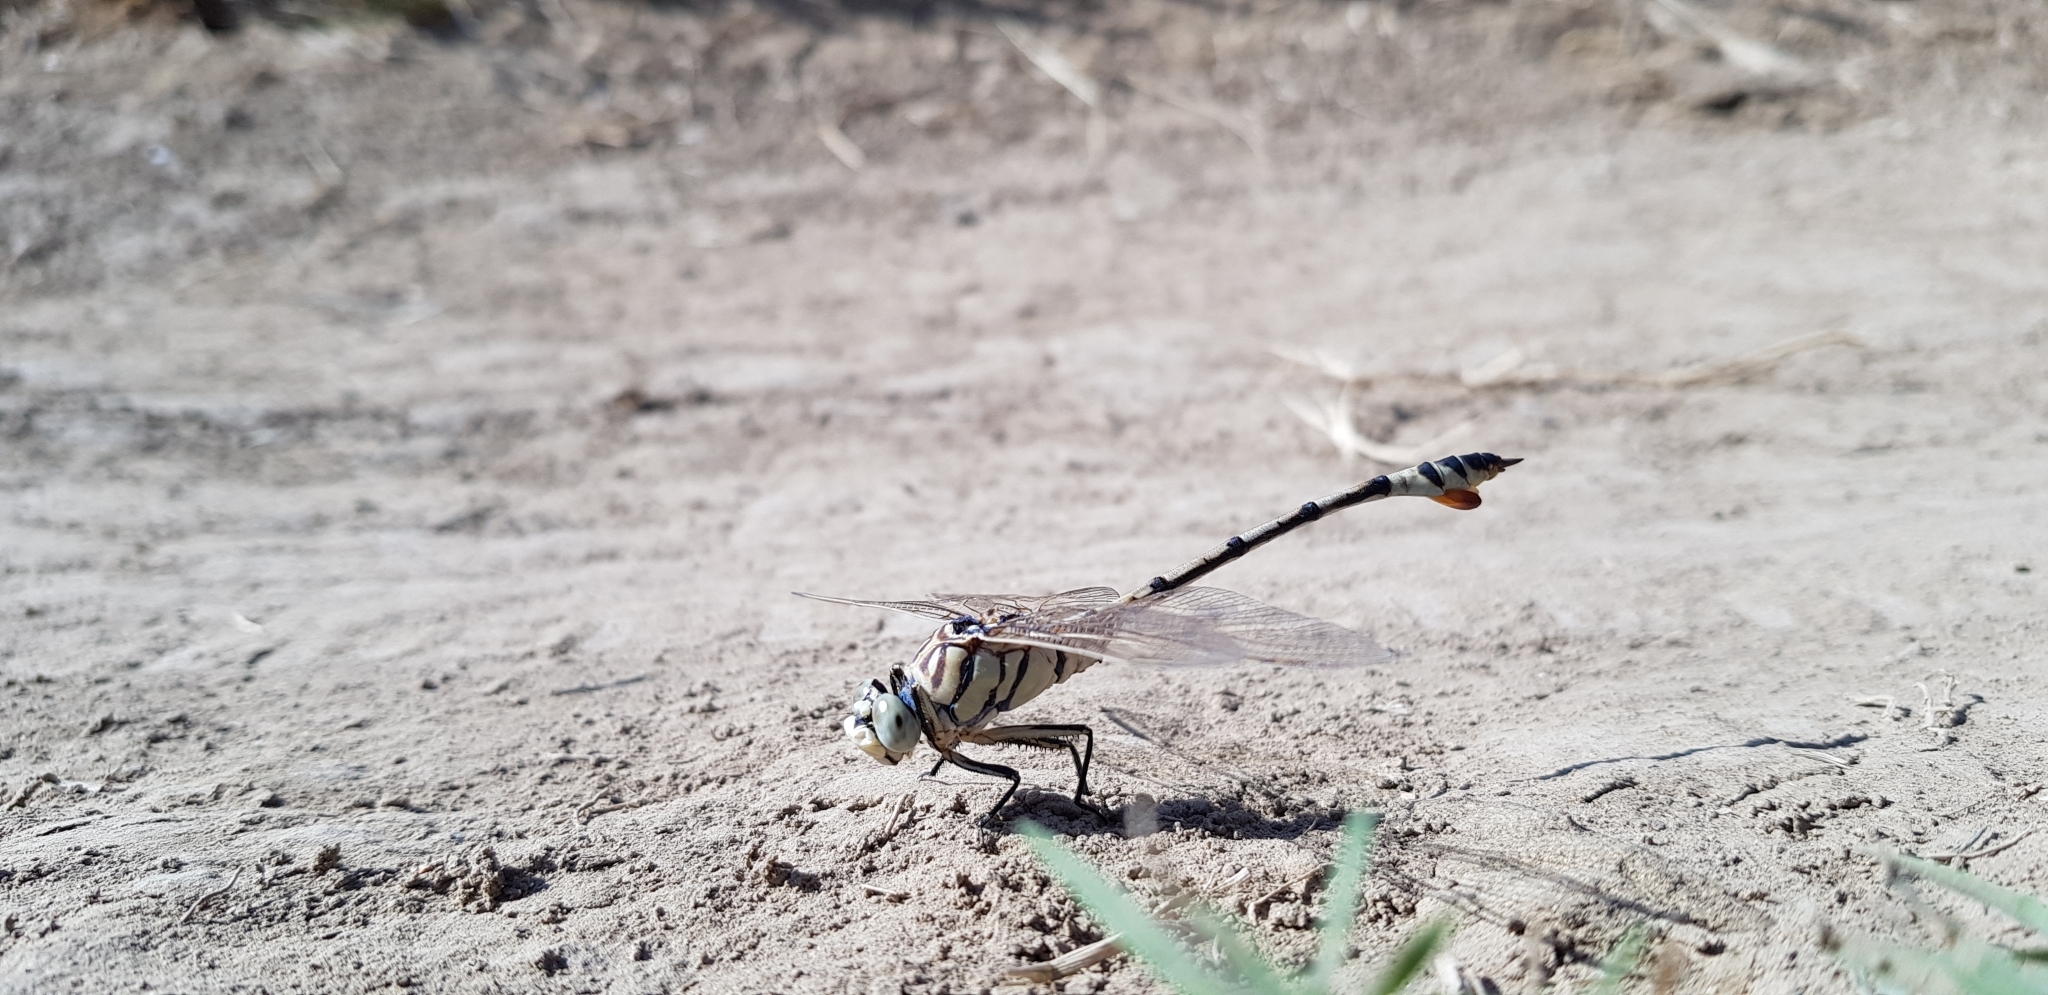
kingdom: Animalia
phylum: Arthropoda
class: Insecta
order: Odonata
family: Gomphidae
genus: Lindenia
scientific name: Lindenia tetraphylla
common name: Bladetail
